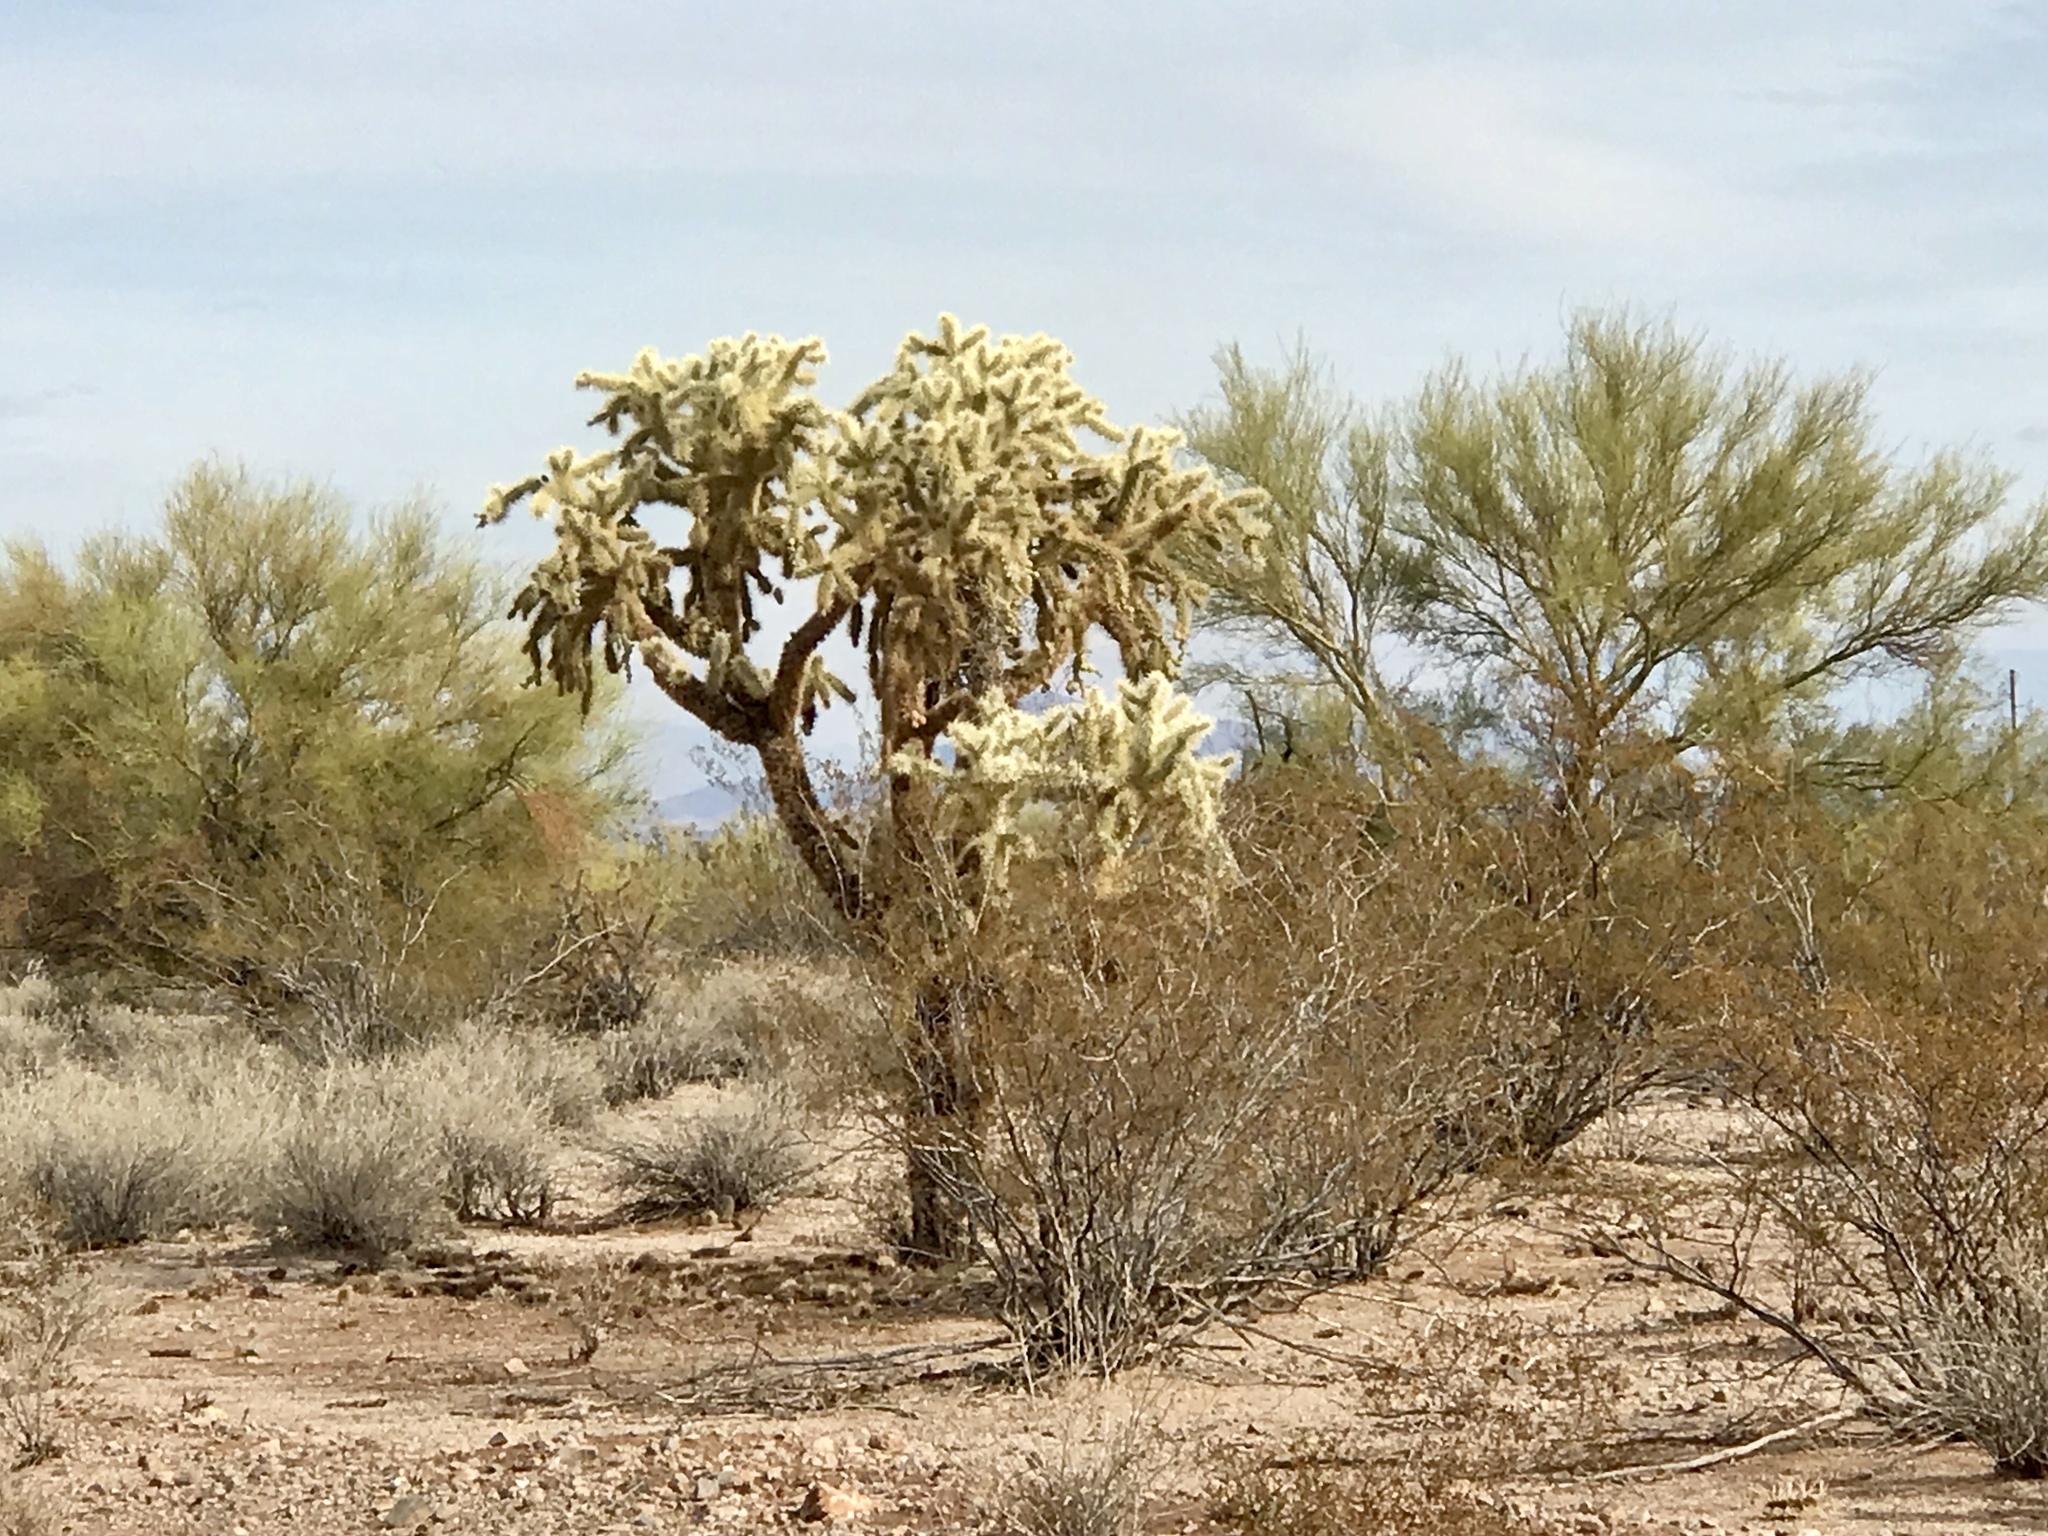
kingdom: Plantae
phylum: Tracheophyta
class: Magnoliopsida
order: Caryophyllales
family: Cactaceae
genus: Cylindropuntia
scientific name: Cylindropuntia fulgida
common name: Jumping cholla
